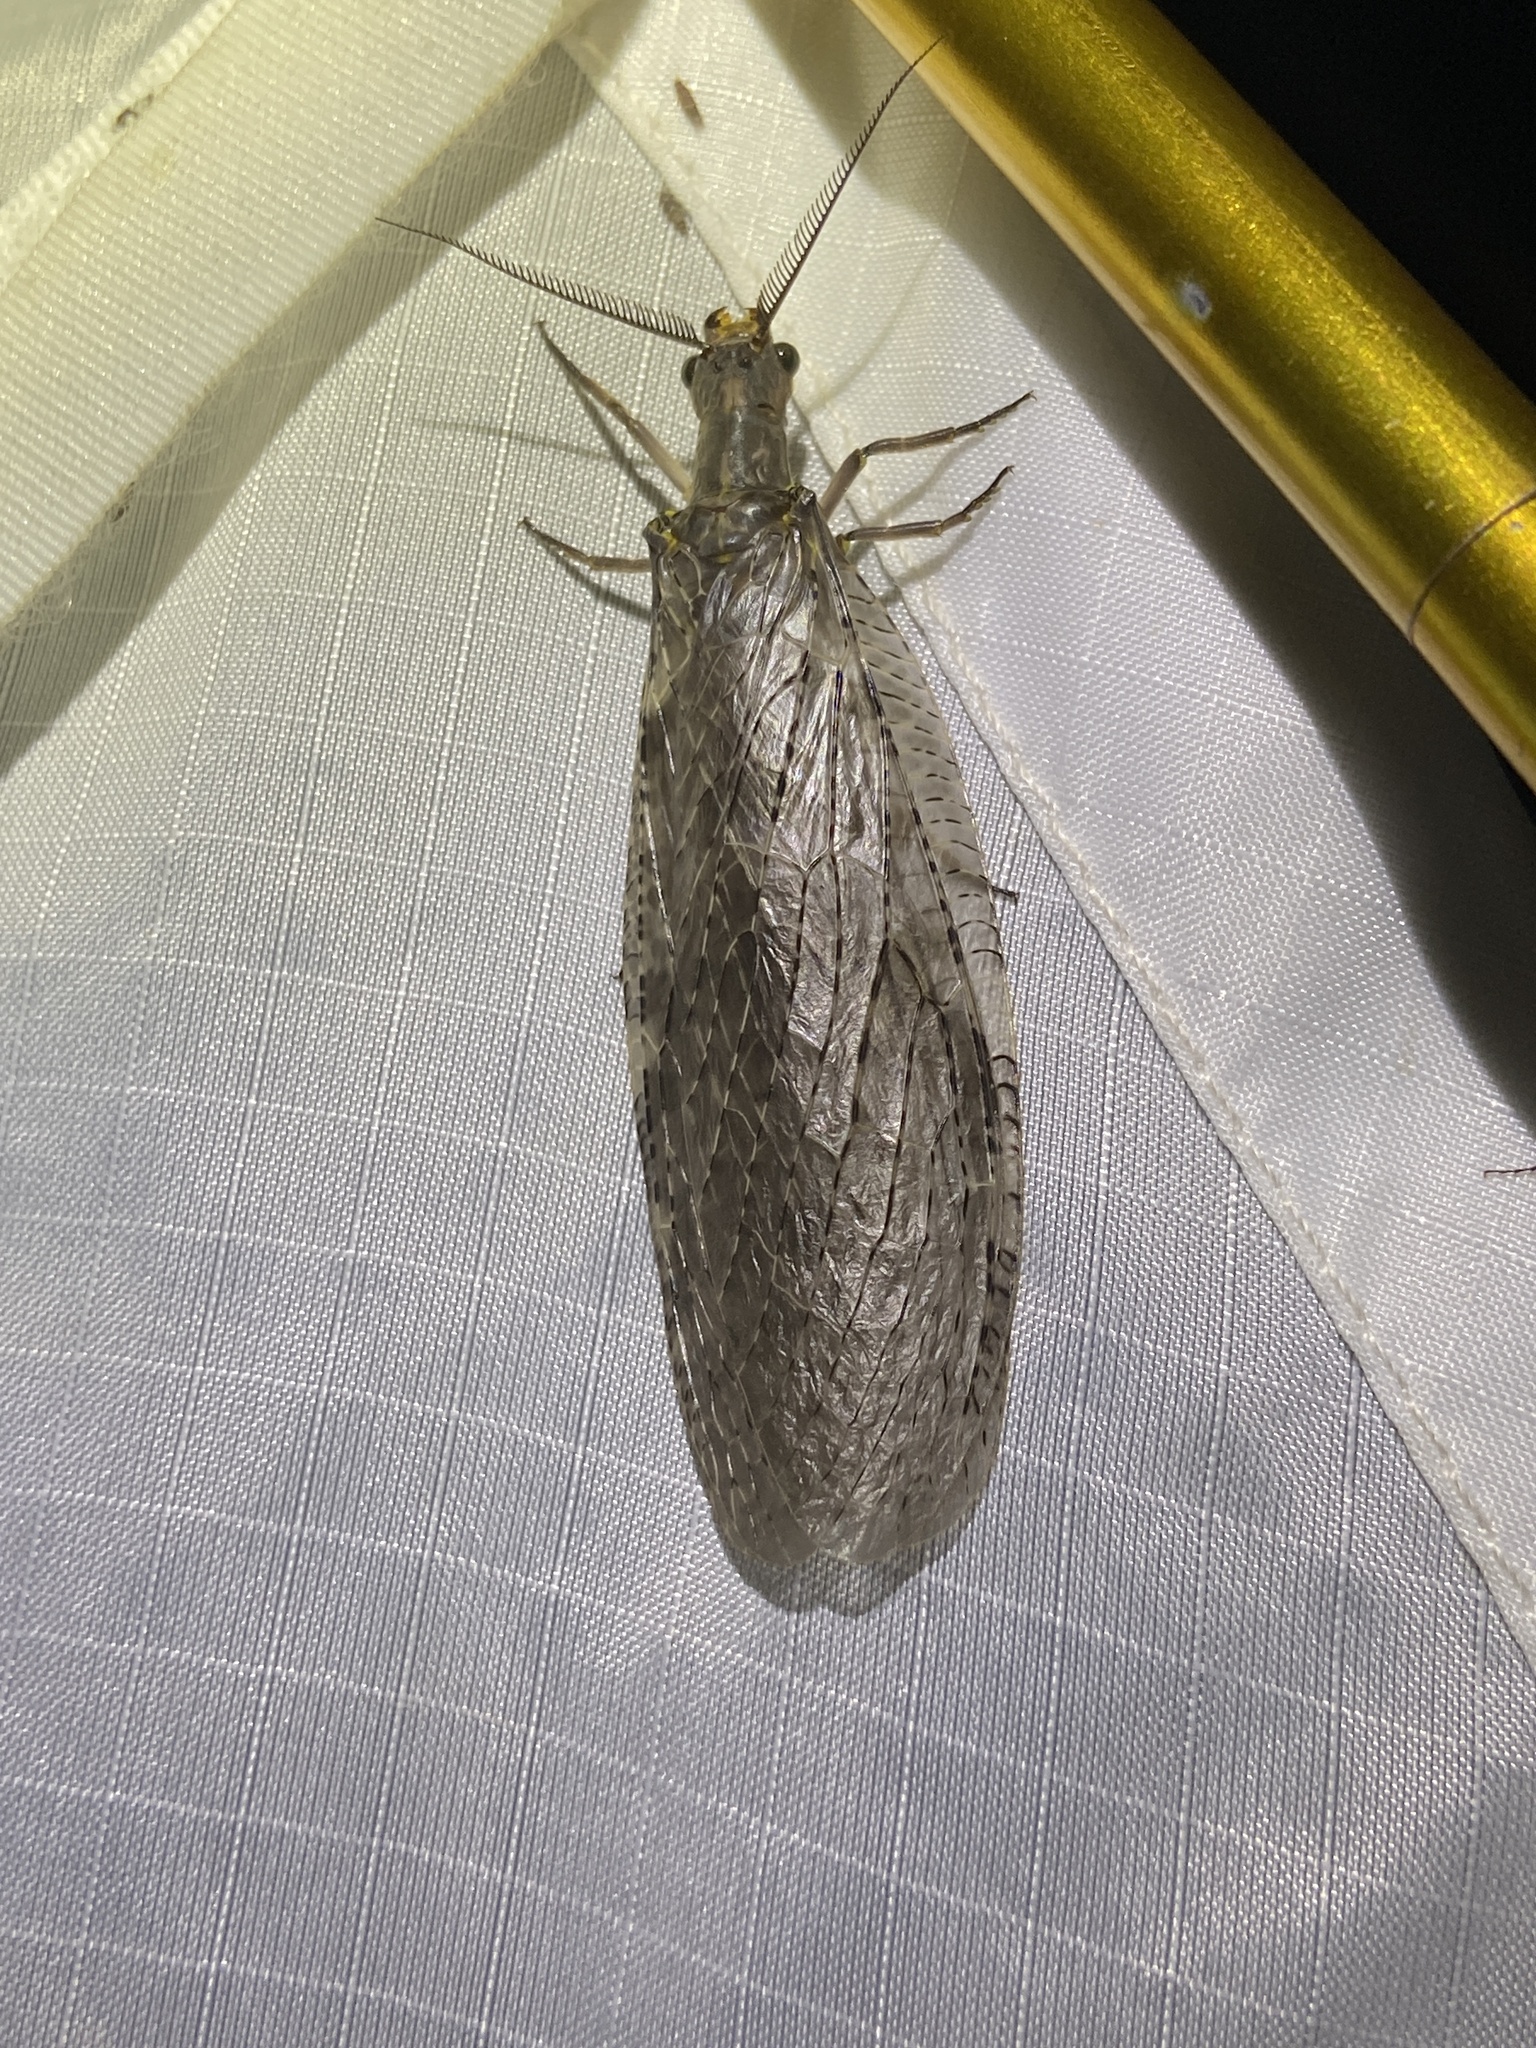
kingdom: Animalia
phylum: Arthropoda
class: Insecta
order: Megaloptera
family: Corydalidae
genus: Chauliodes
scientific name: Chauliodes pectinicornis
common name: Summer fishfly
